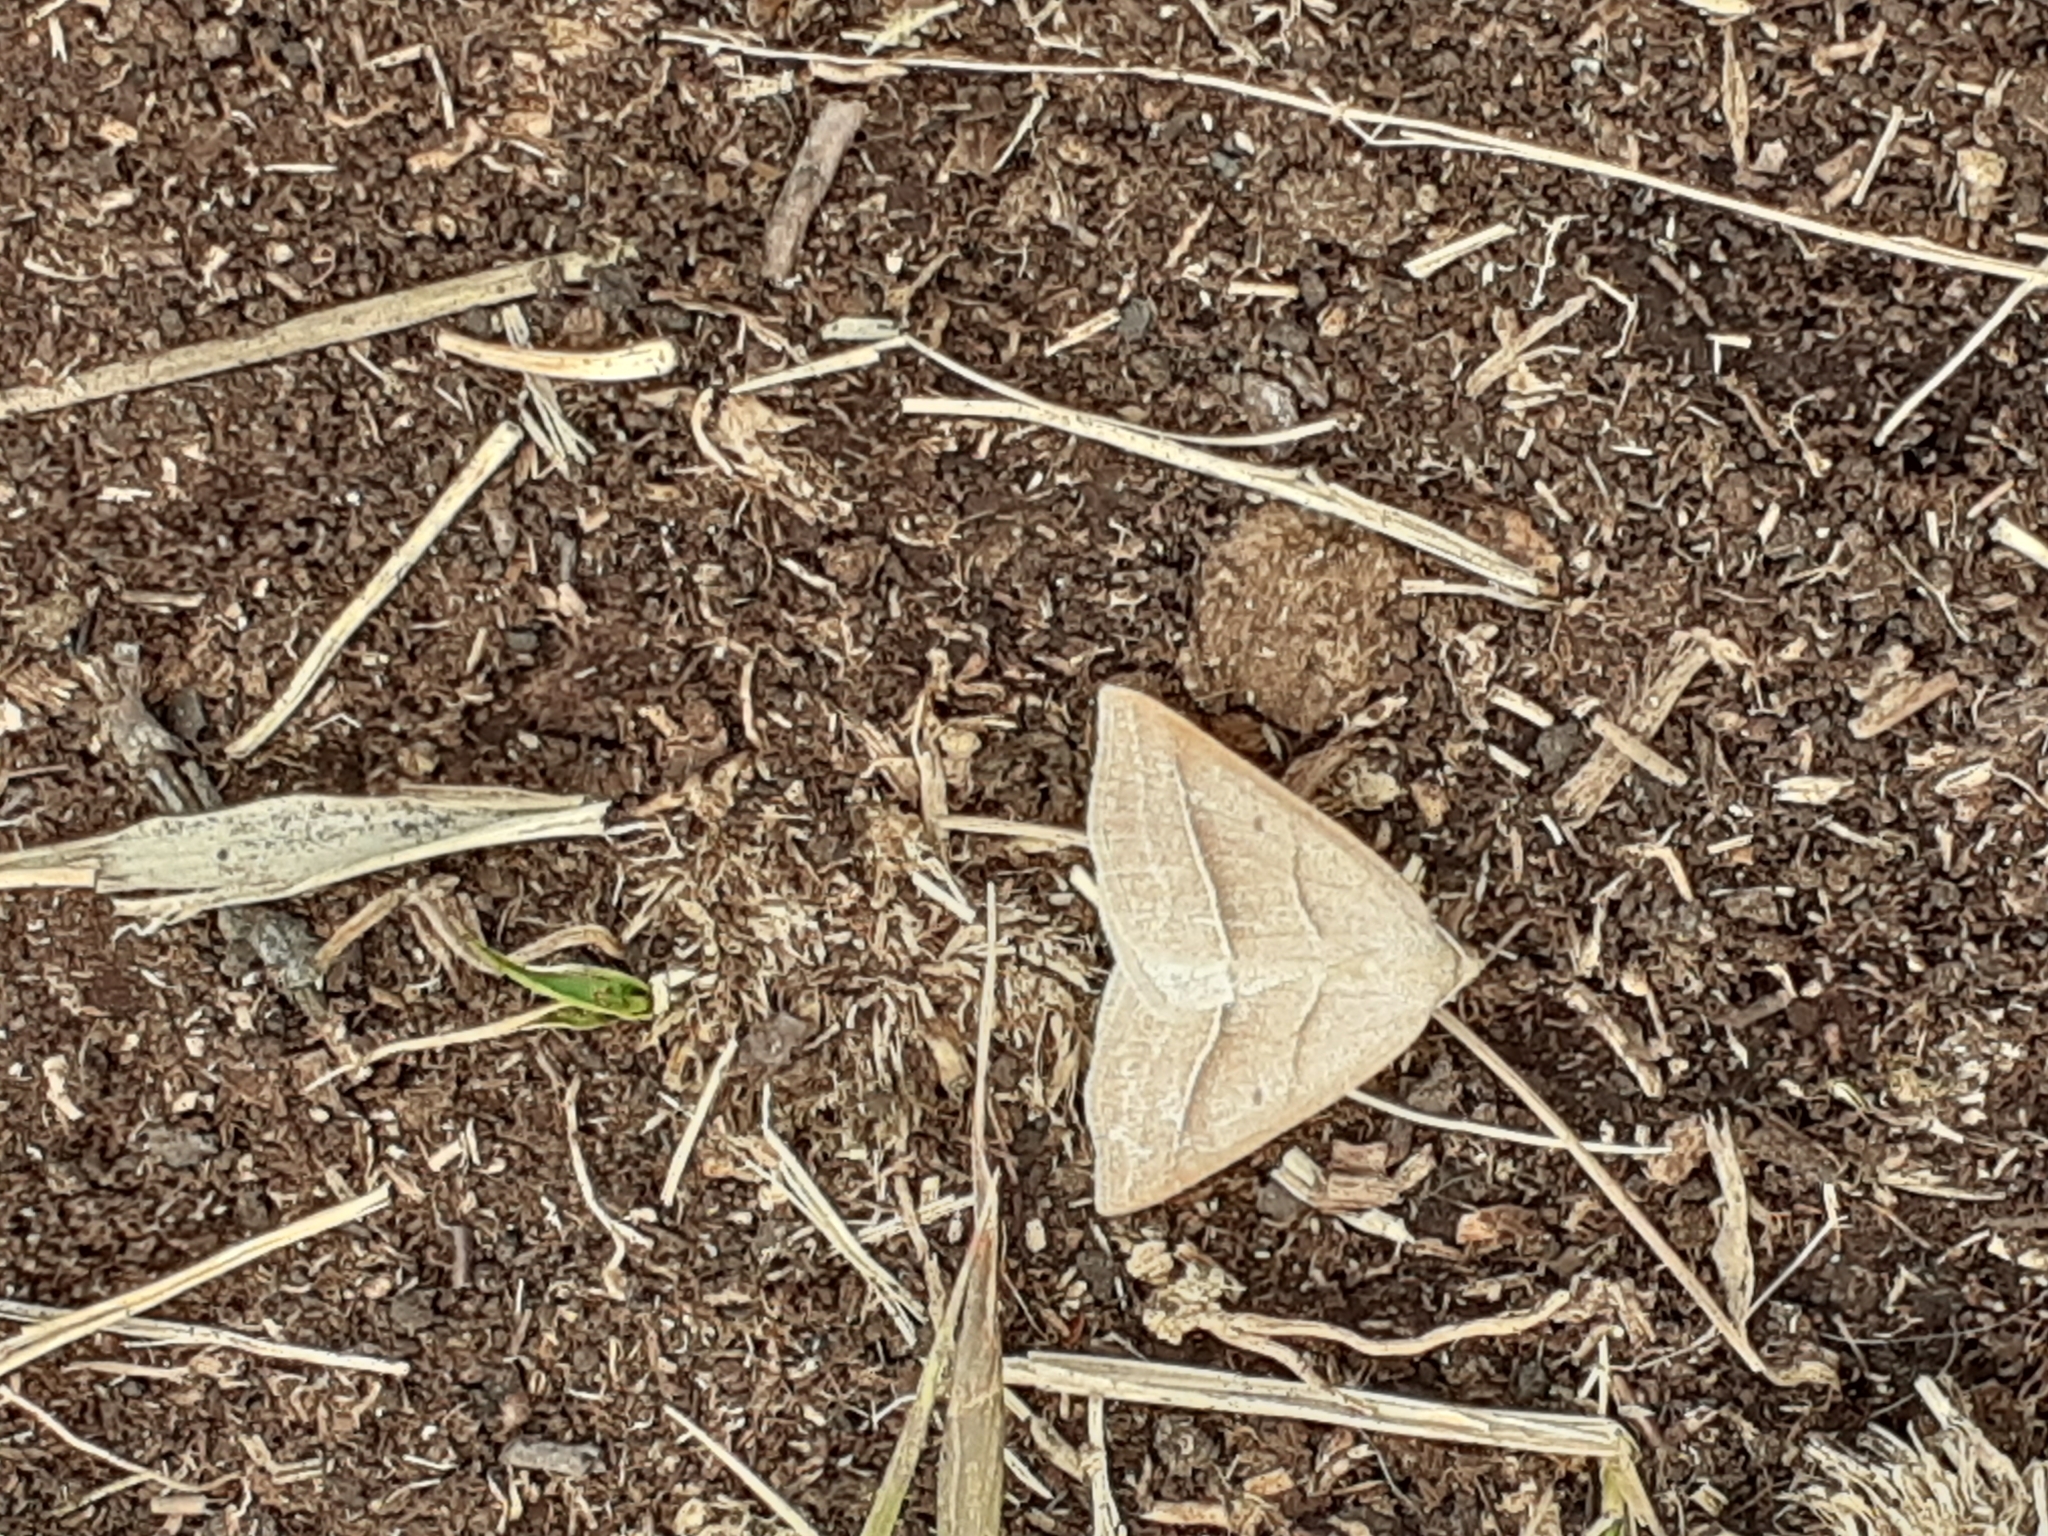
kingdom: Animalia
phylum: Arthropoda
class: Insecta
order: Lepidoptera
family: Pterophoridae
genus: Pterophorus
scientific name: Pterophorus Petrophora chlorosata
